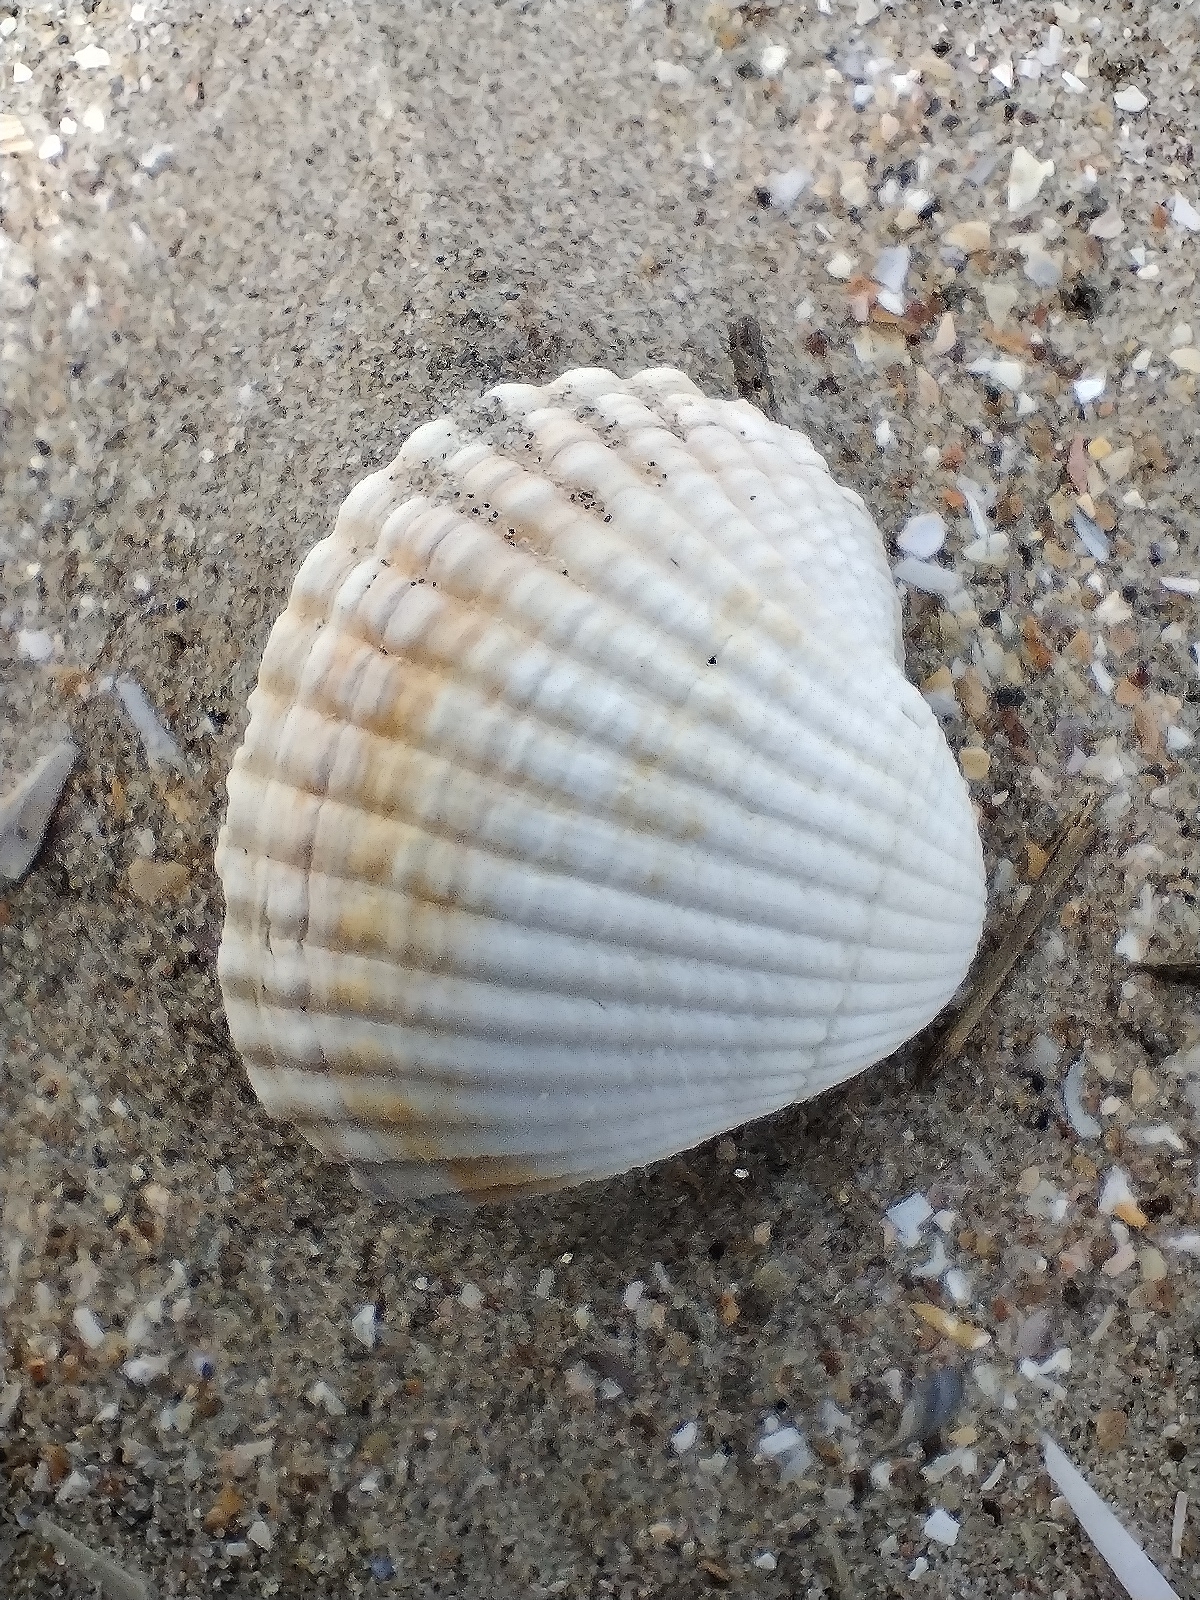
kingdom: Animalia
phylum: Mollusca
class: Bivalvia
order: Cardiida
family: Cardiidae
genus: Cerastoderma
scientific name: Cerastoderma edule
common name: Common cockle
